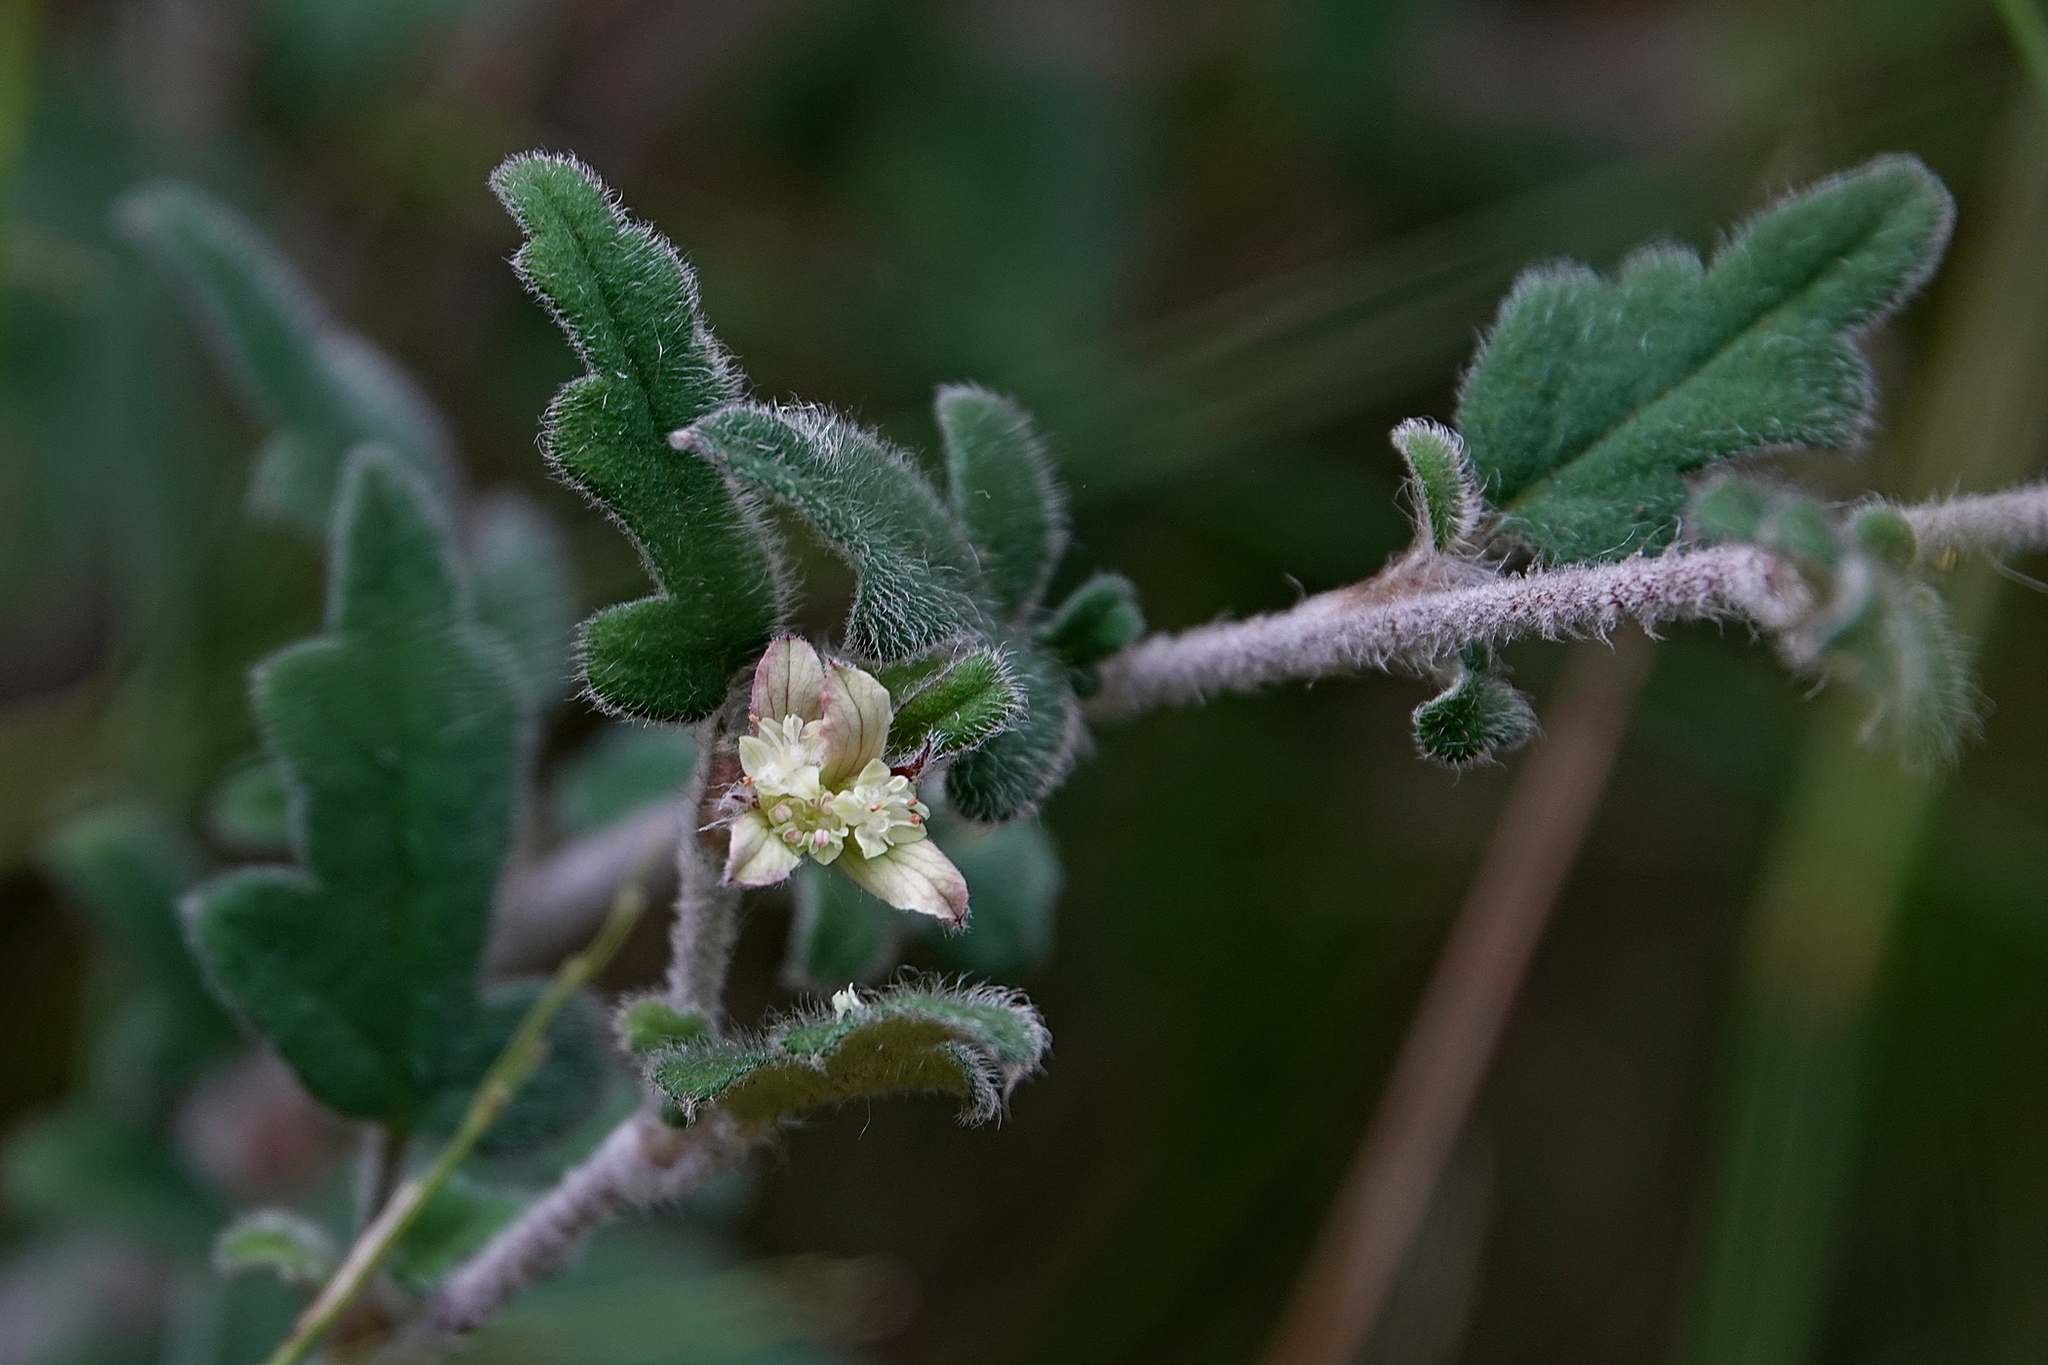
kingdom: Plantae
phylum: Tracheophyta
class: Magnoliopsida
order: Apiales
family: Apiaceae
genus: Xanthosia
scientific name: Xanthosia pilosa
